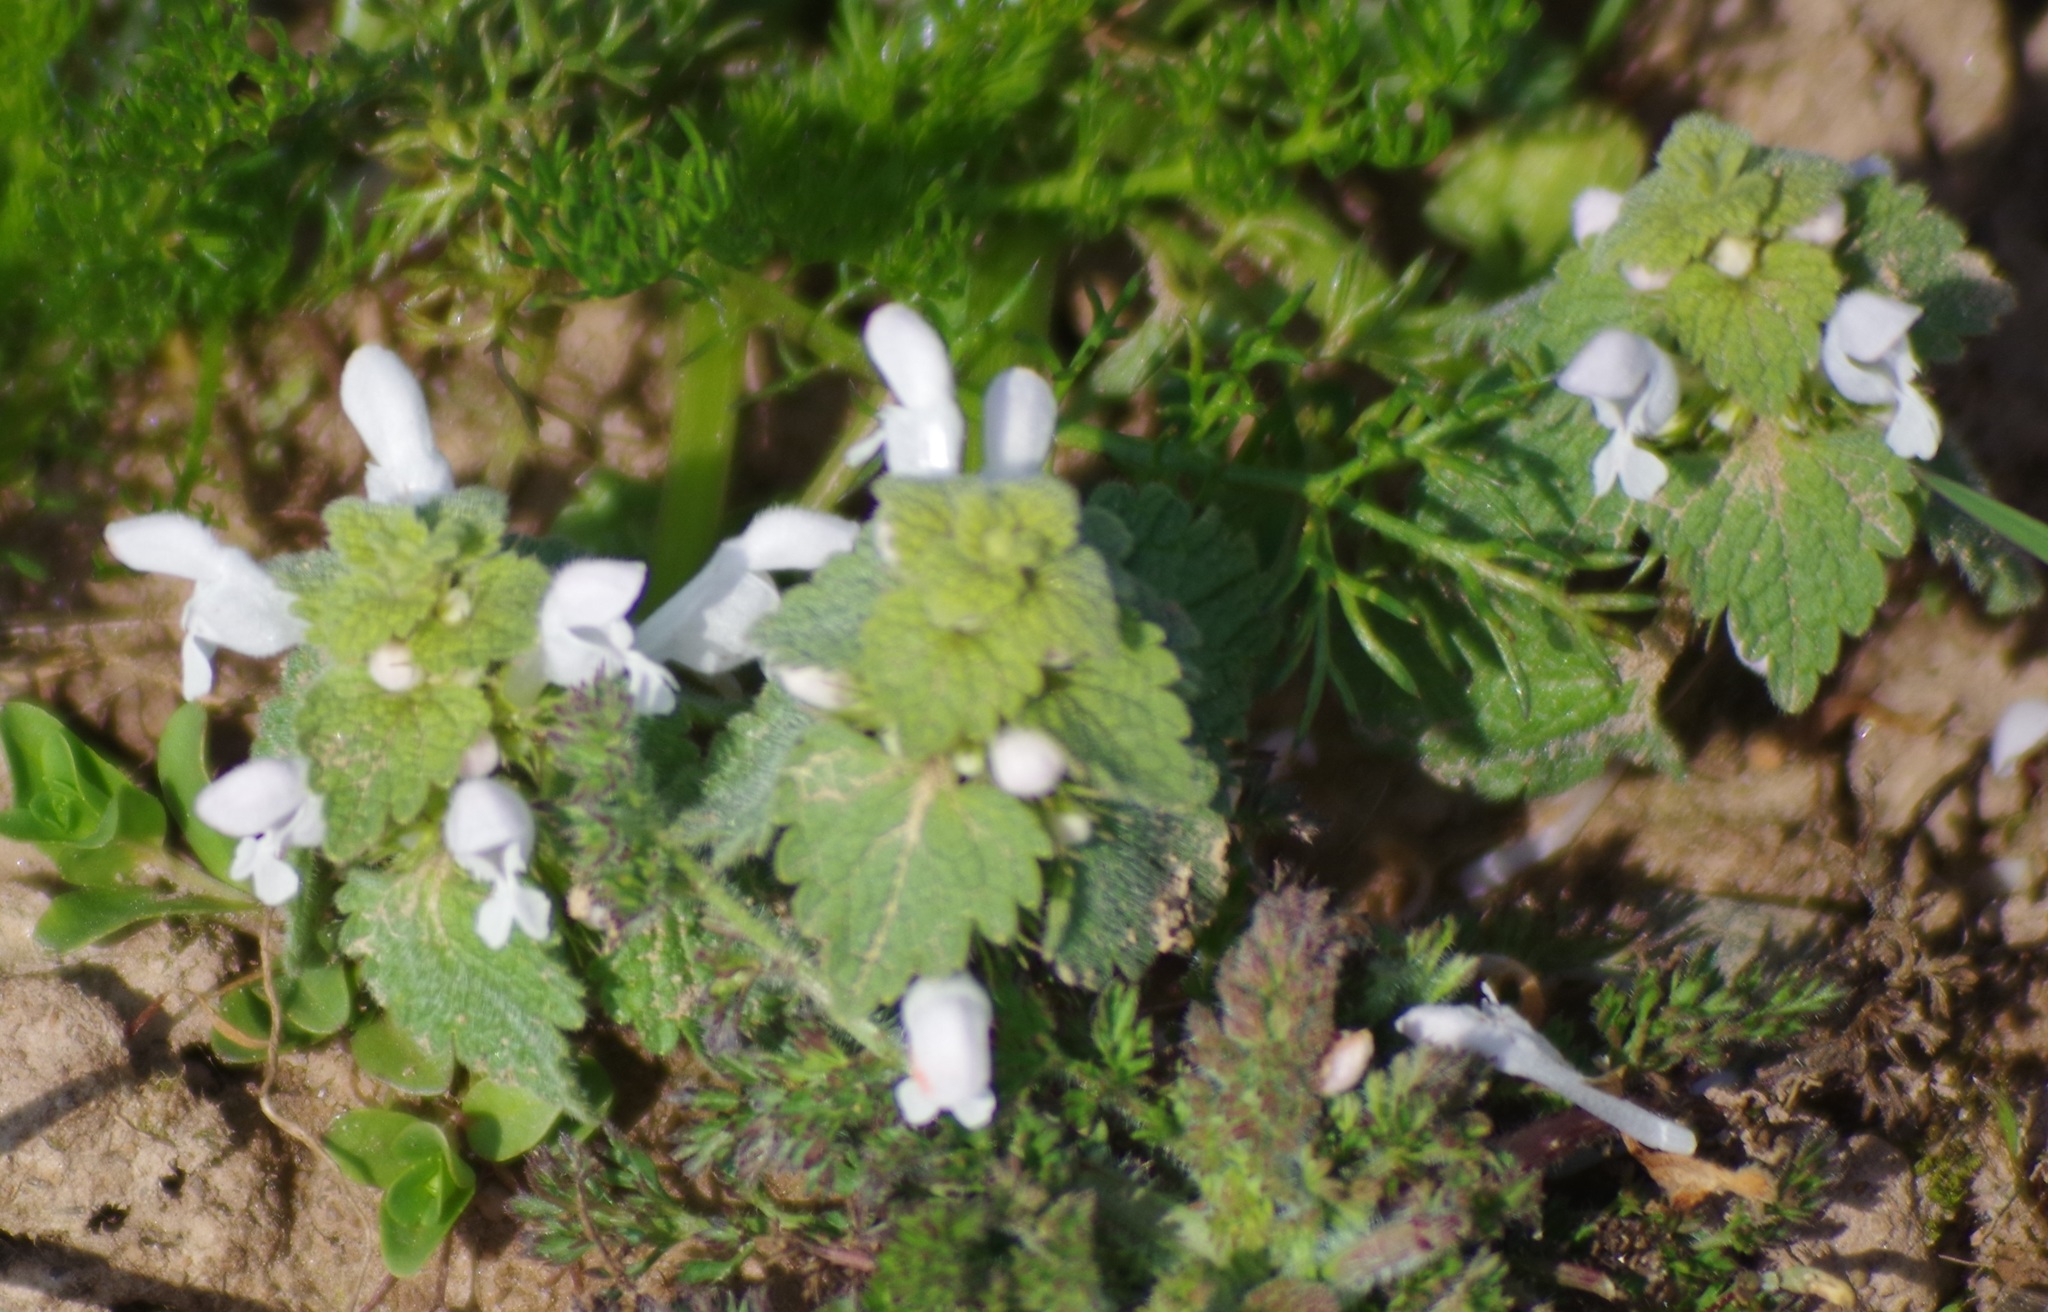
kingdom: Plantae
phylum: Tracheophyta
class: Magnoliopsida
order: Lamiales
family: Lamiaceae
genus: Lamium
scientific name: Lamium purpureum
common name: Red dead-nettle
